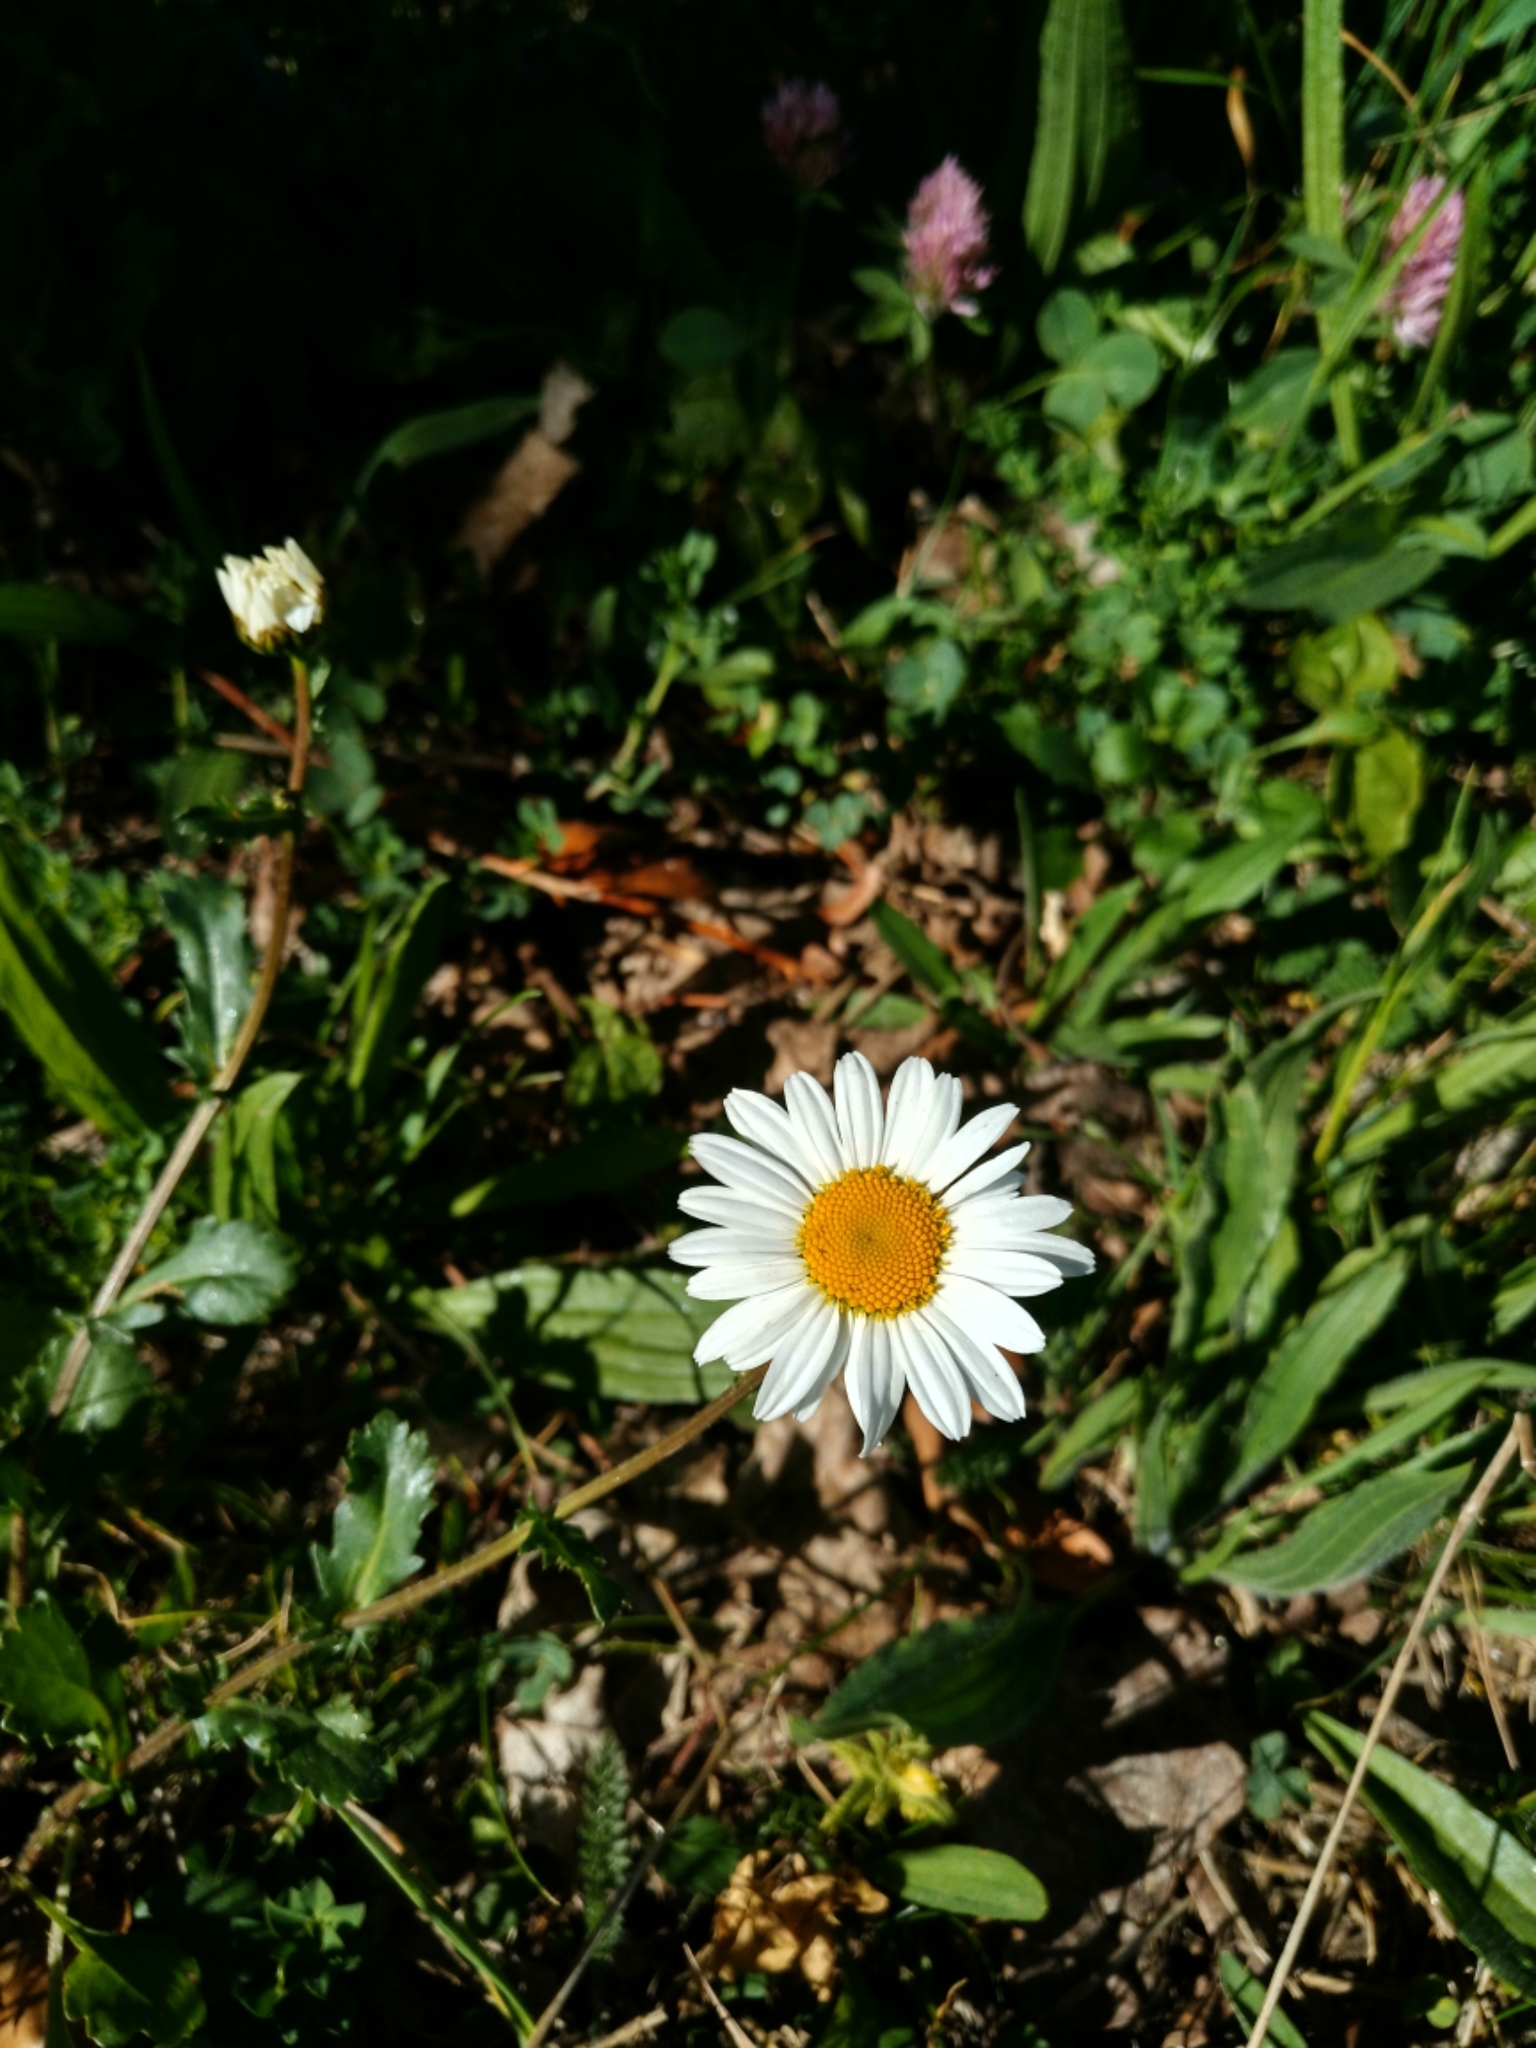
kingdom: Plantae
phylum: Tracheophyta
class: Magnoliopsida
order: Asterales
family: Asteraceae
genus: Leucanthemum
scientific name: Leucanthemum vulgare
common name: Oxeye daisy
